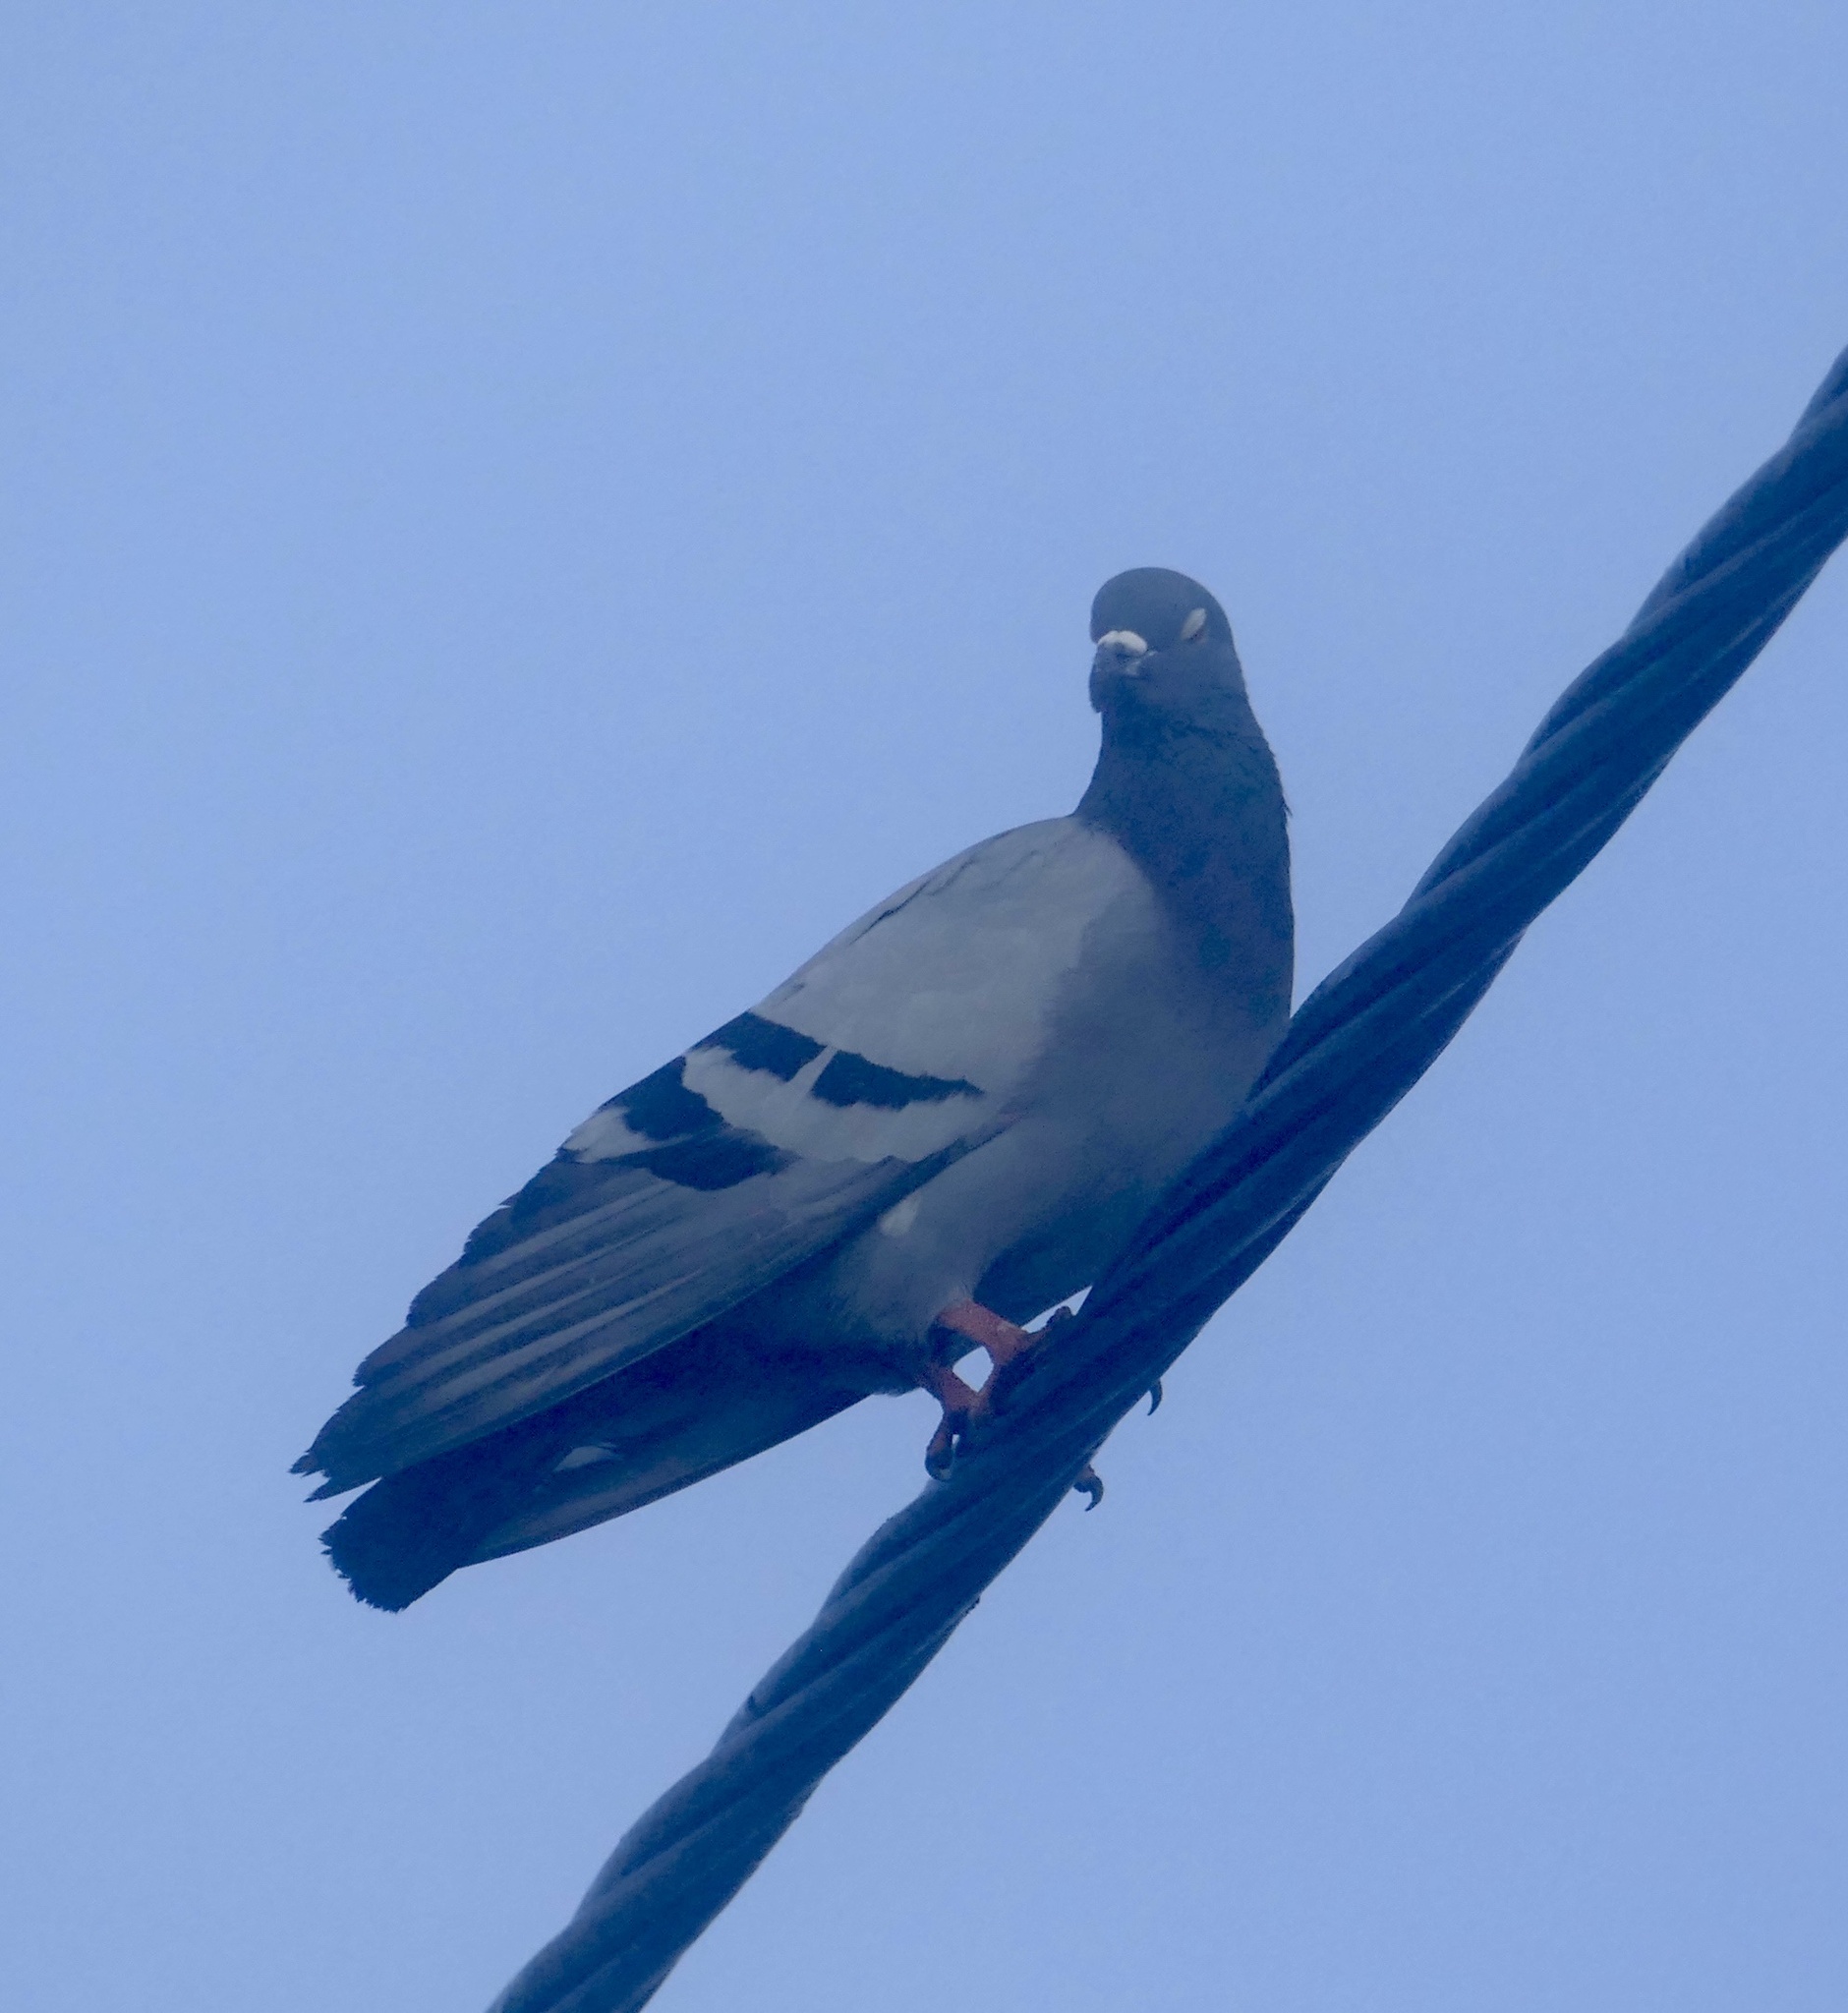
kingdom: Animalia
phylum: Chordata
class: Aves
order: Columbiformes
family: Columbidae
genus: Columba
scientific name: Columba livia
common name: Rock pigeon
